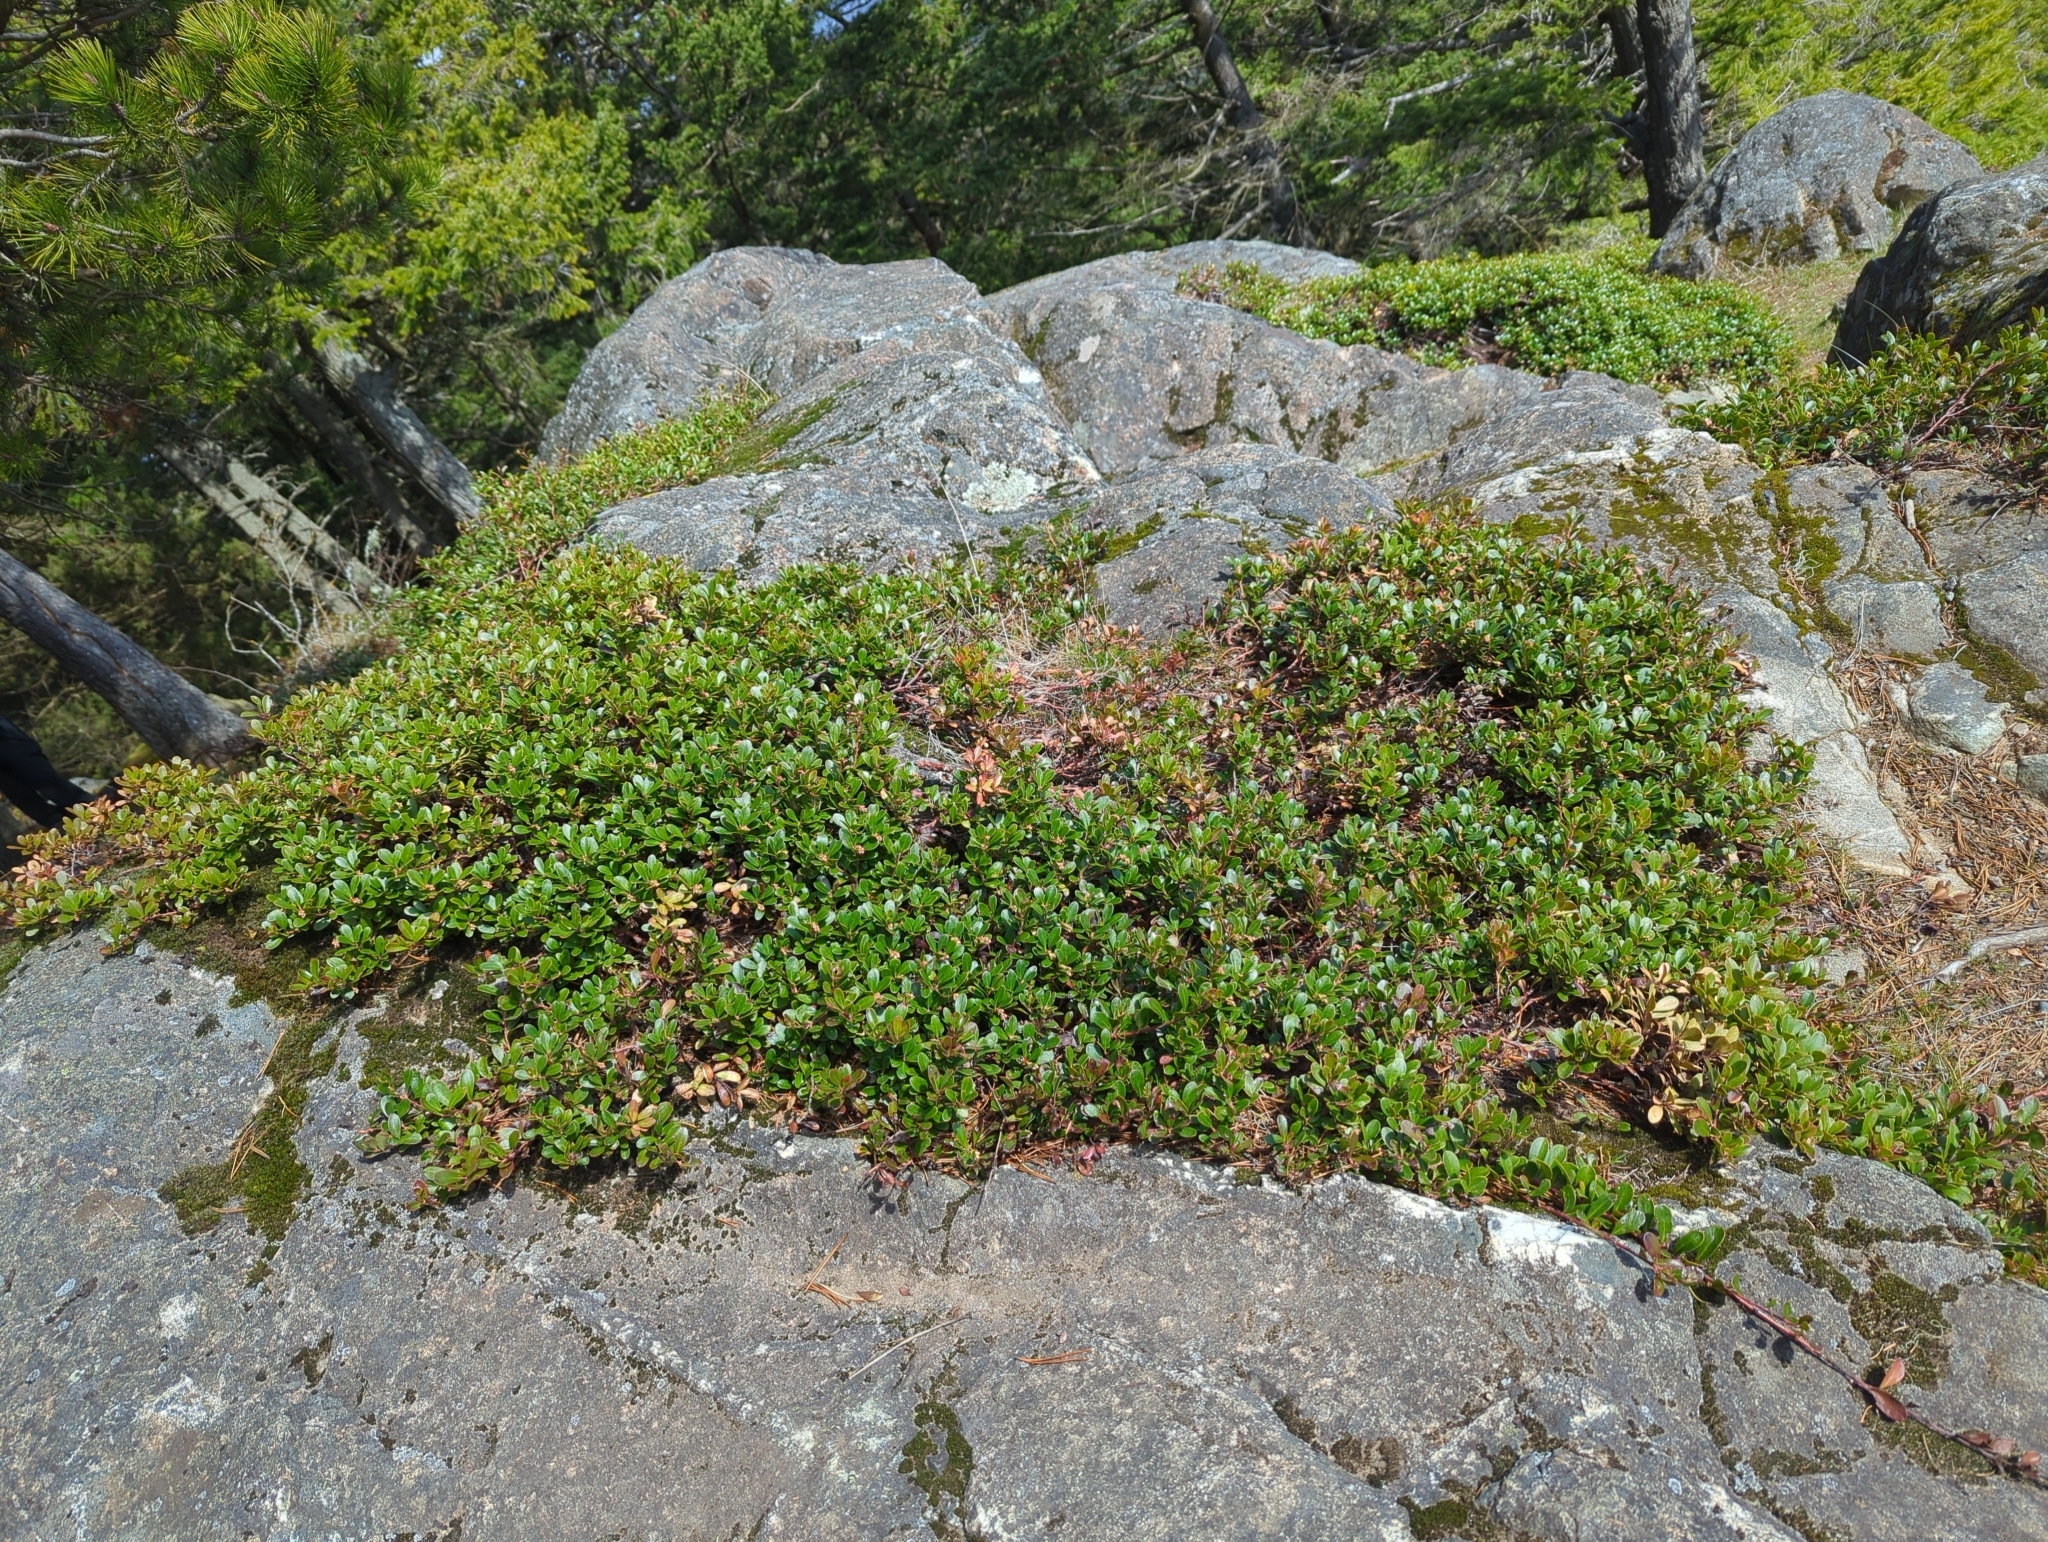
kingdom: Plantae
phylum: Tracheophyta
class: Magnoliopsida
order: Ericales
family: Ericaceae
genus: Arctostaphylos
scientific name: Arctostaphylos uva-ursi
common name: Bearberry
